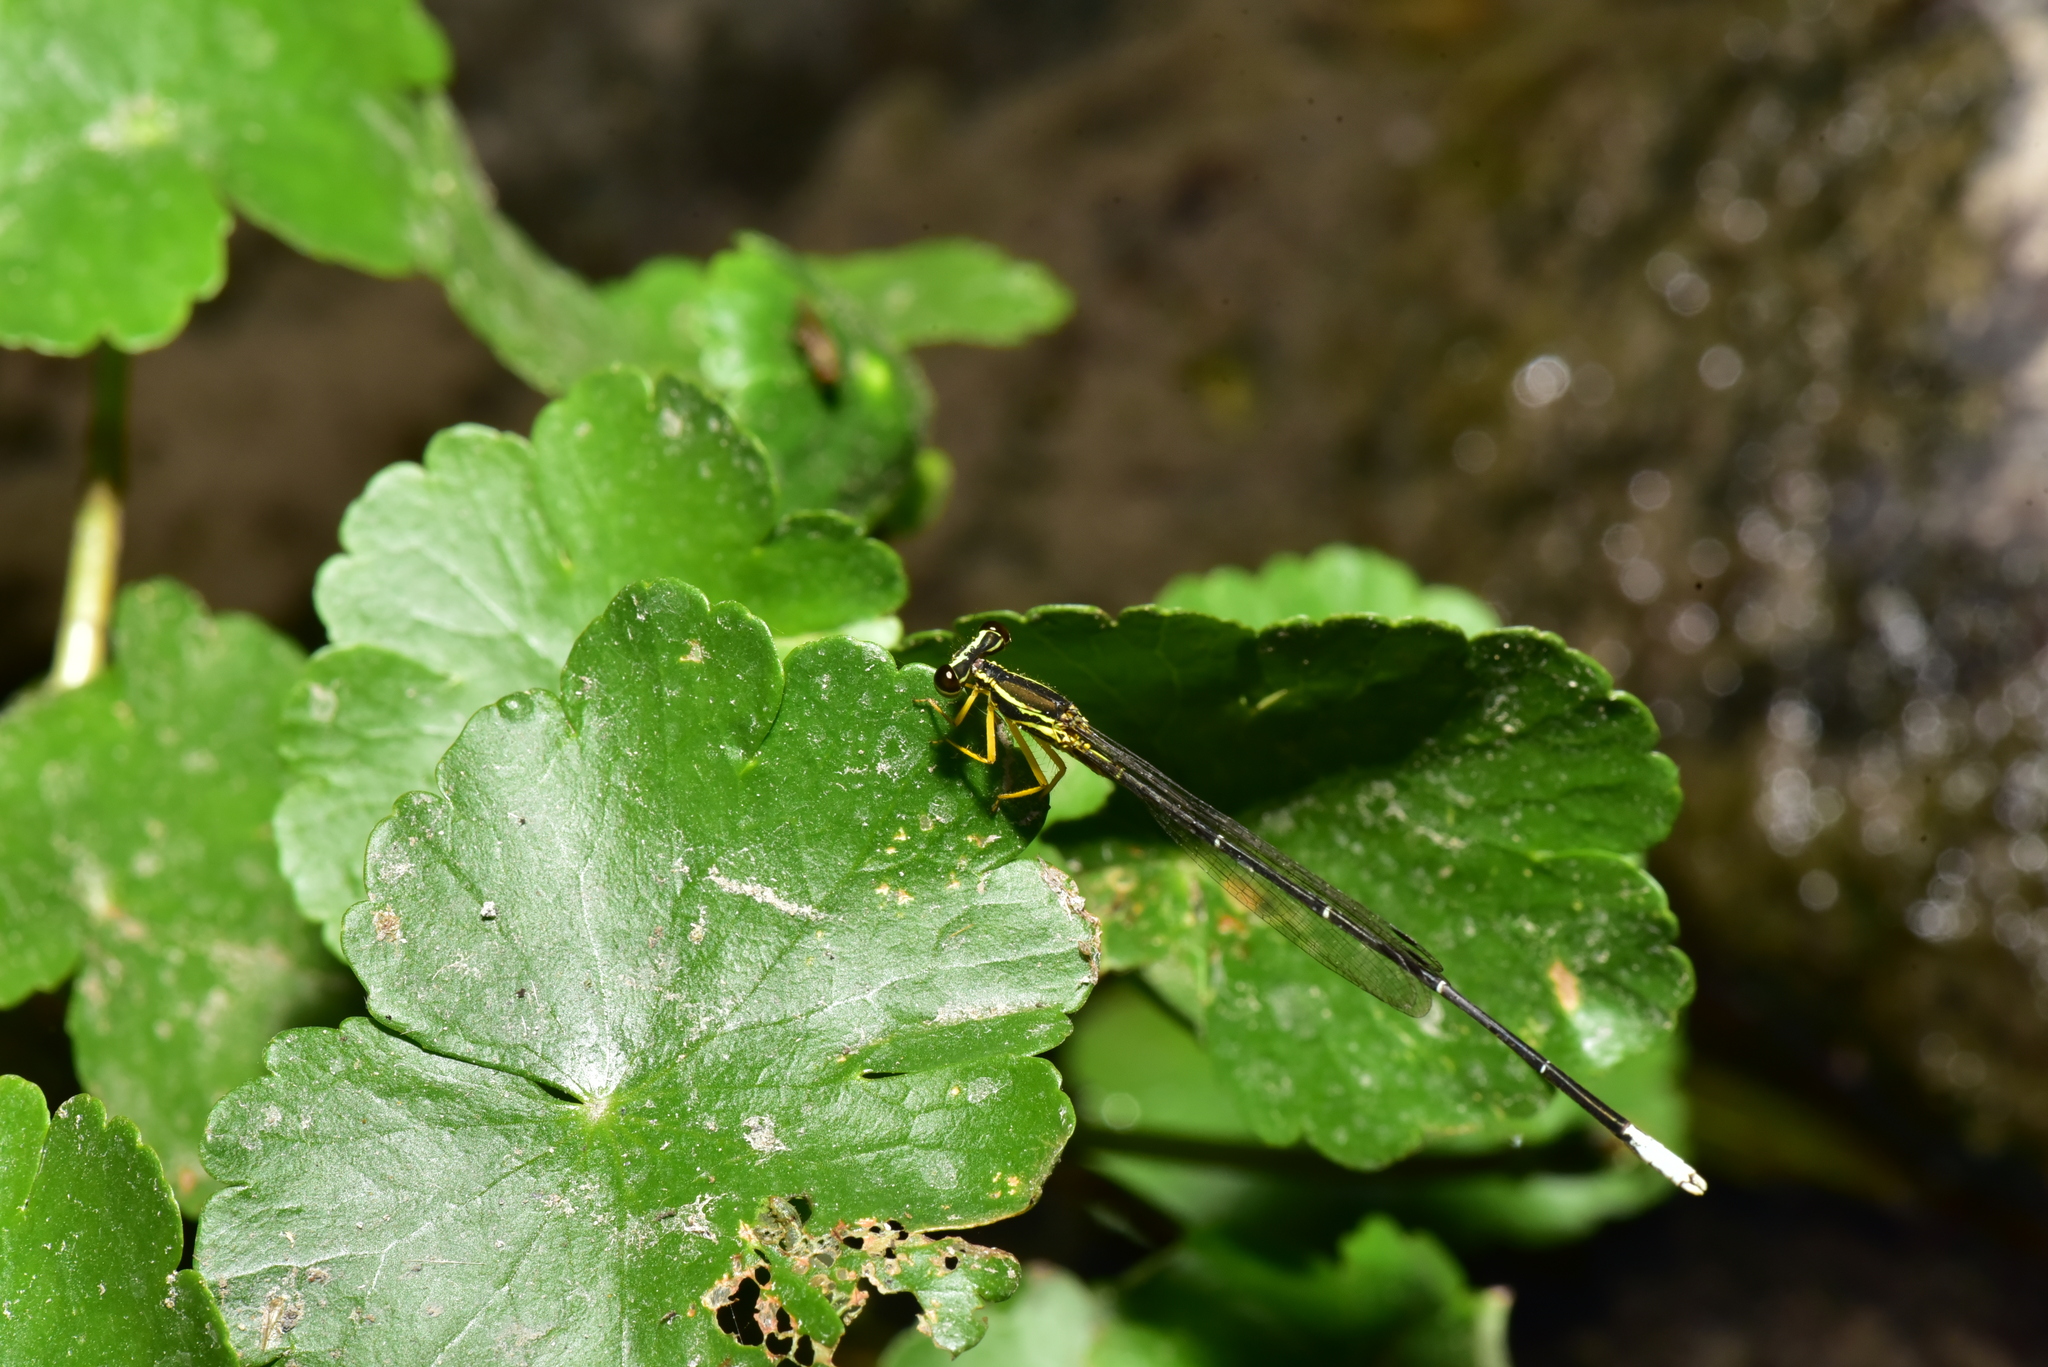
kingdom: Animalia
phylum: Arthropoda
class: Insecta
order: Odonata
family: Platycnemididae
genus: Copera
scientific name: Copera marginipes
